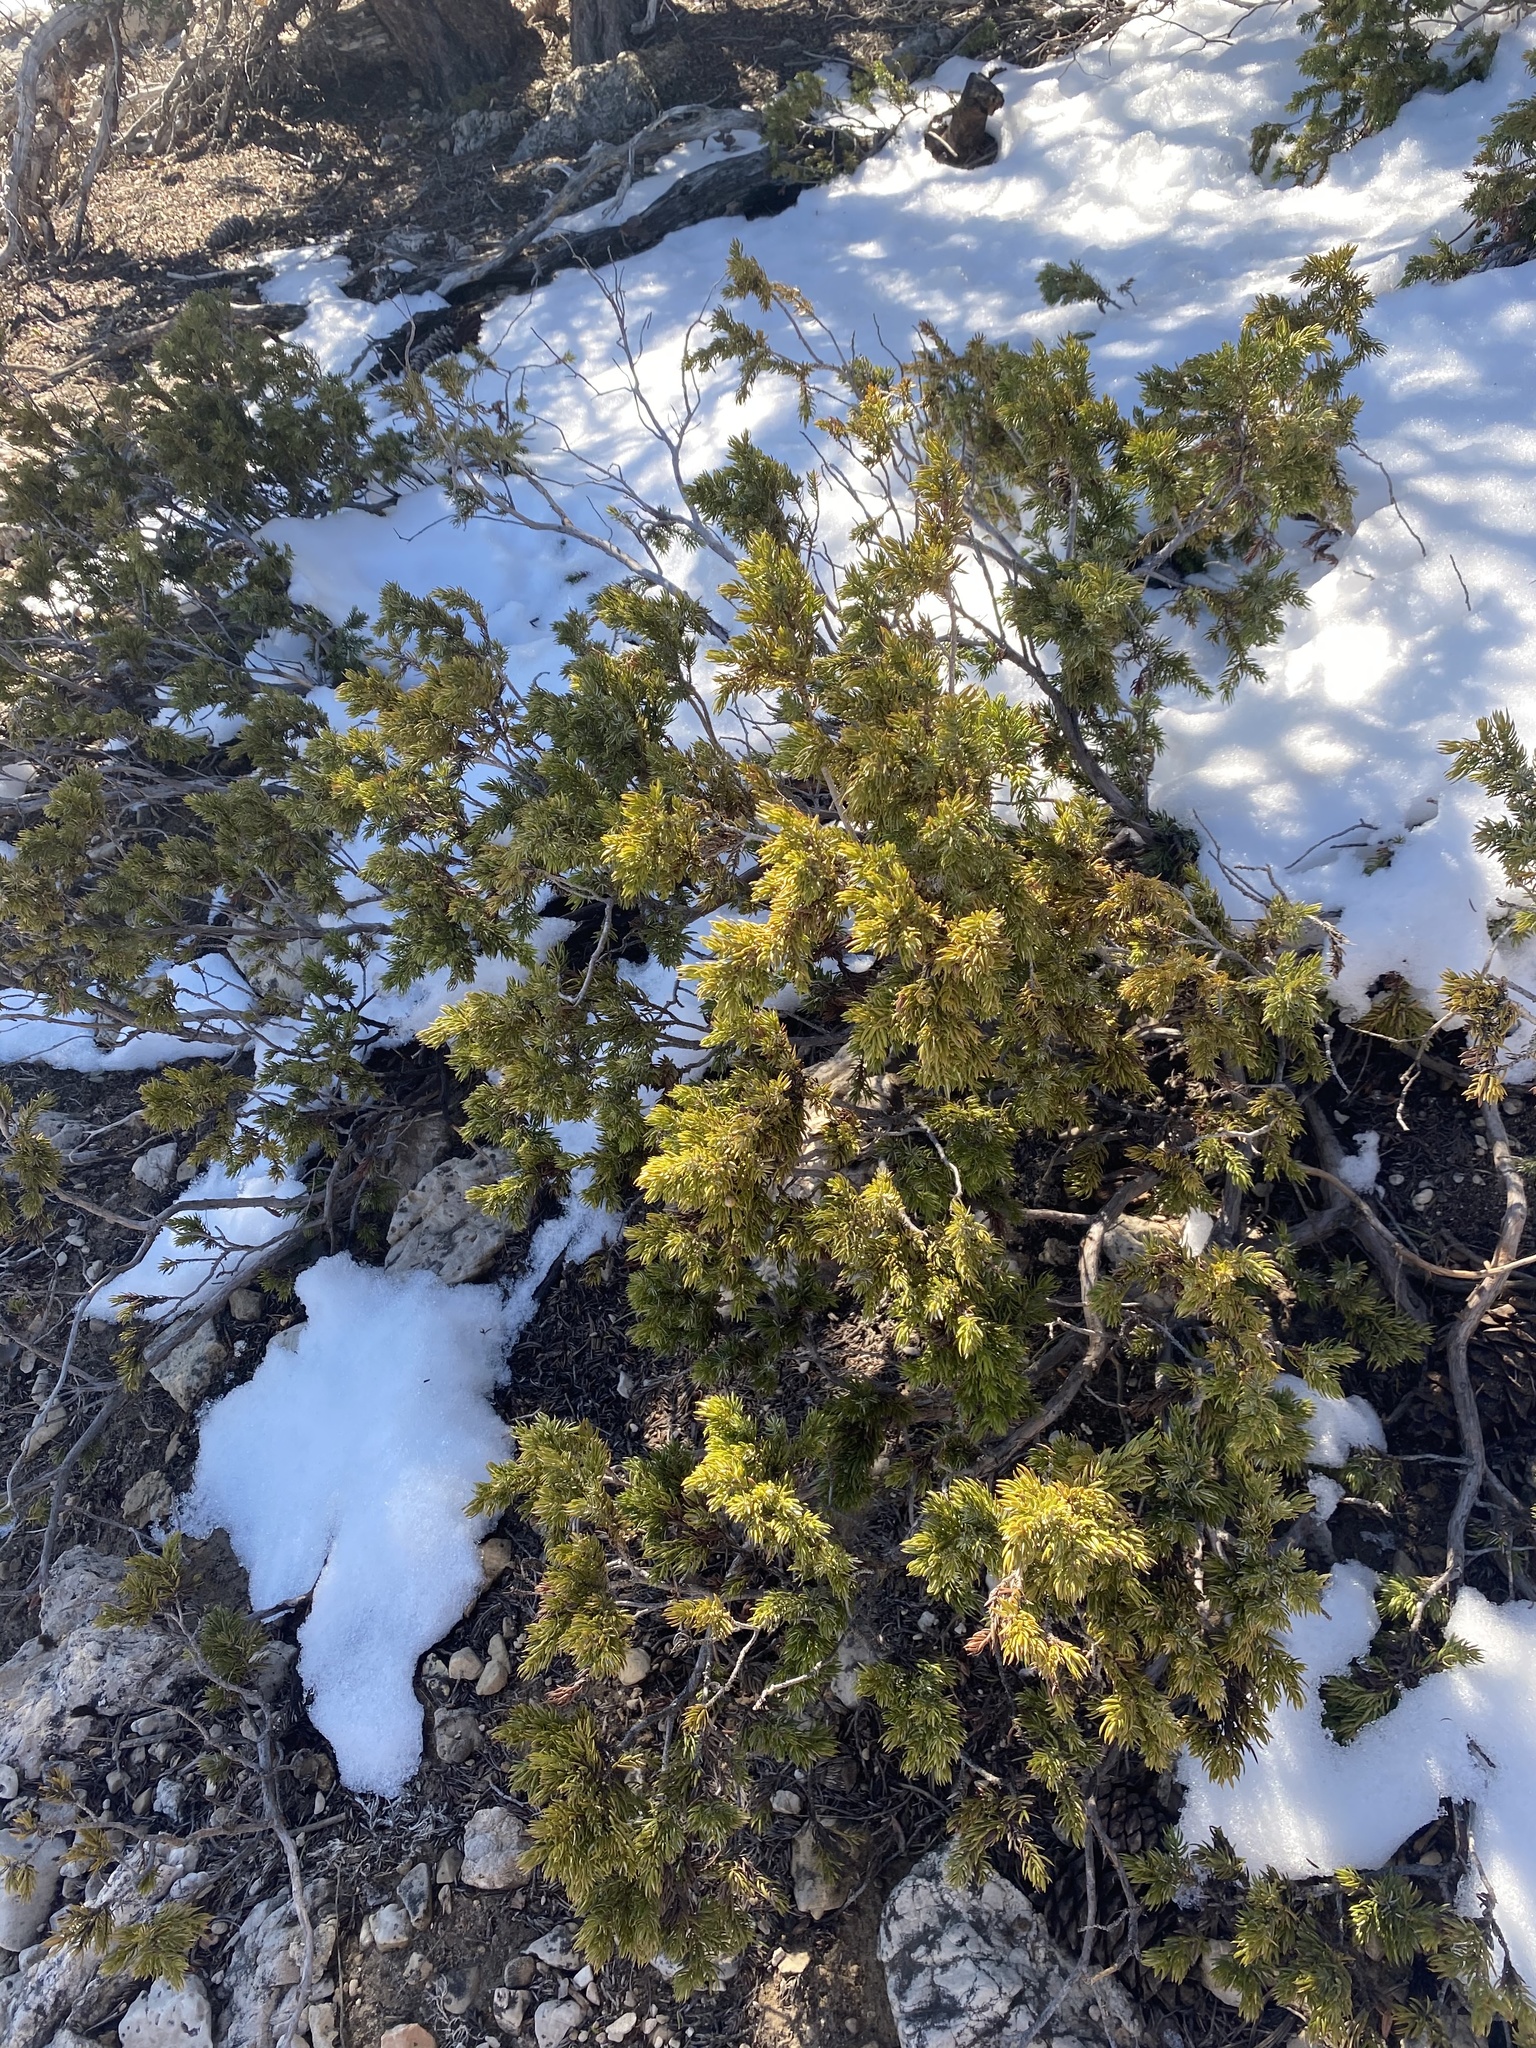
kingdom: Plantae
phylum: Tracheophyta
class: Pinopsida
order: Pinales
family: Cupressaceae
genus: Juniperus
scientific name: Juniperus communis
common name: Common juniper
